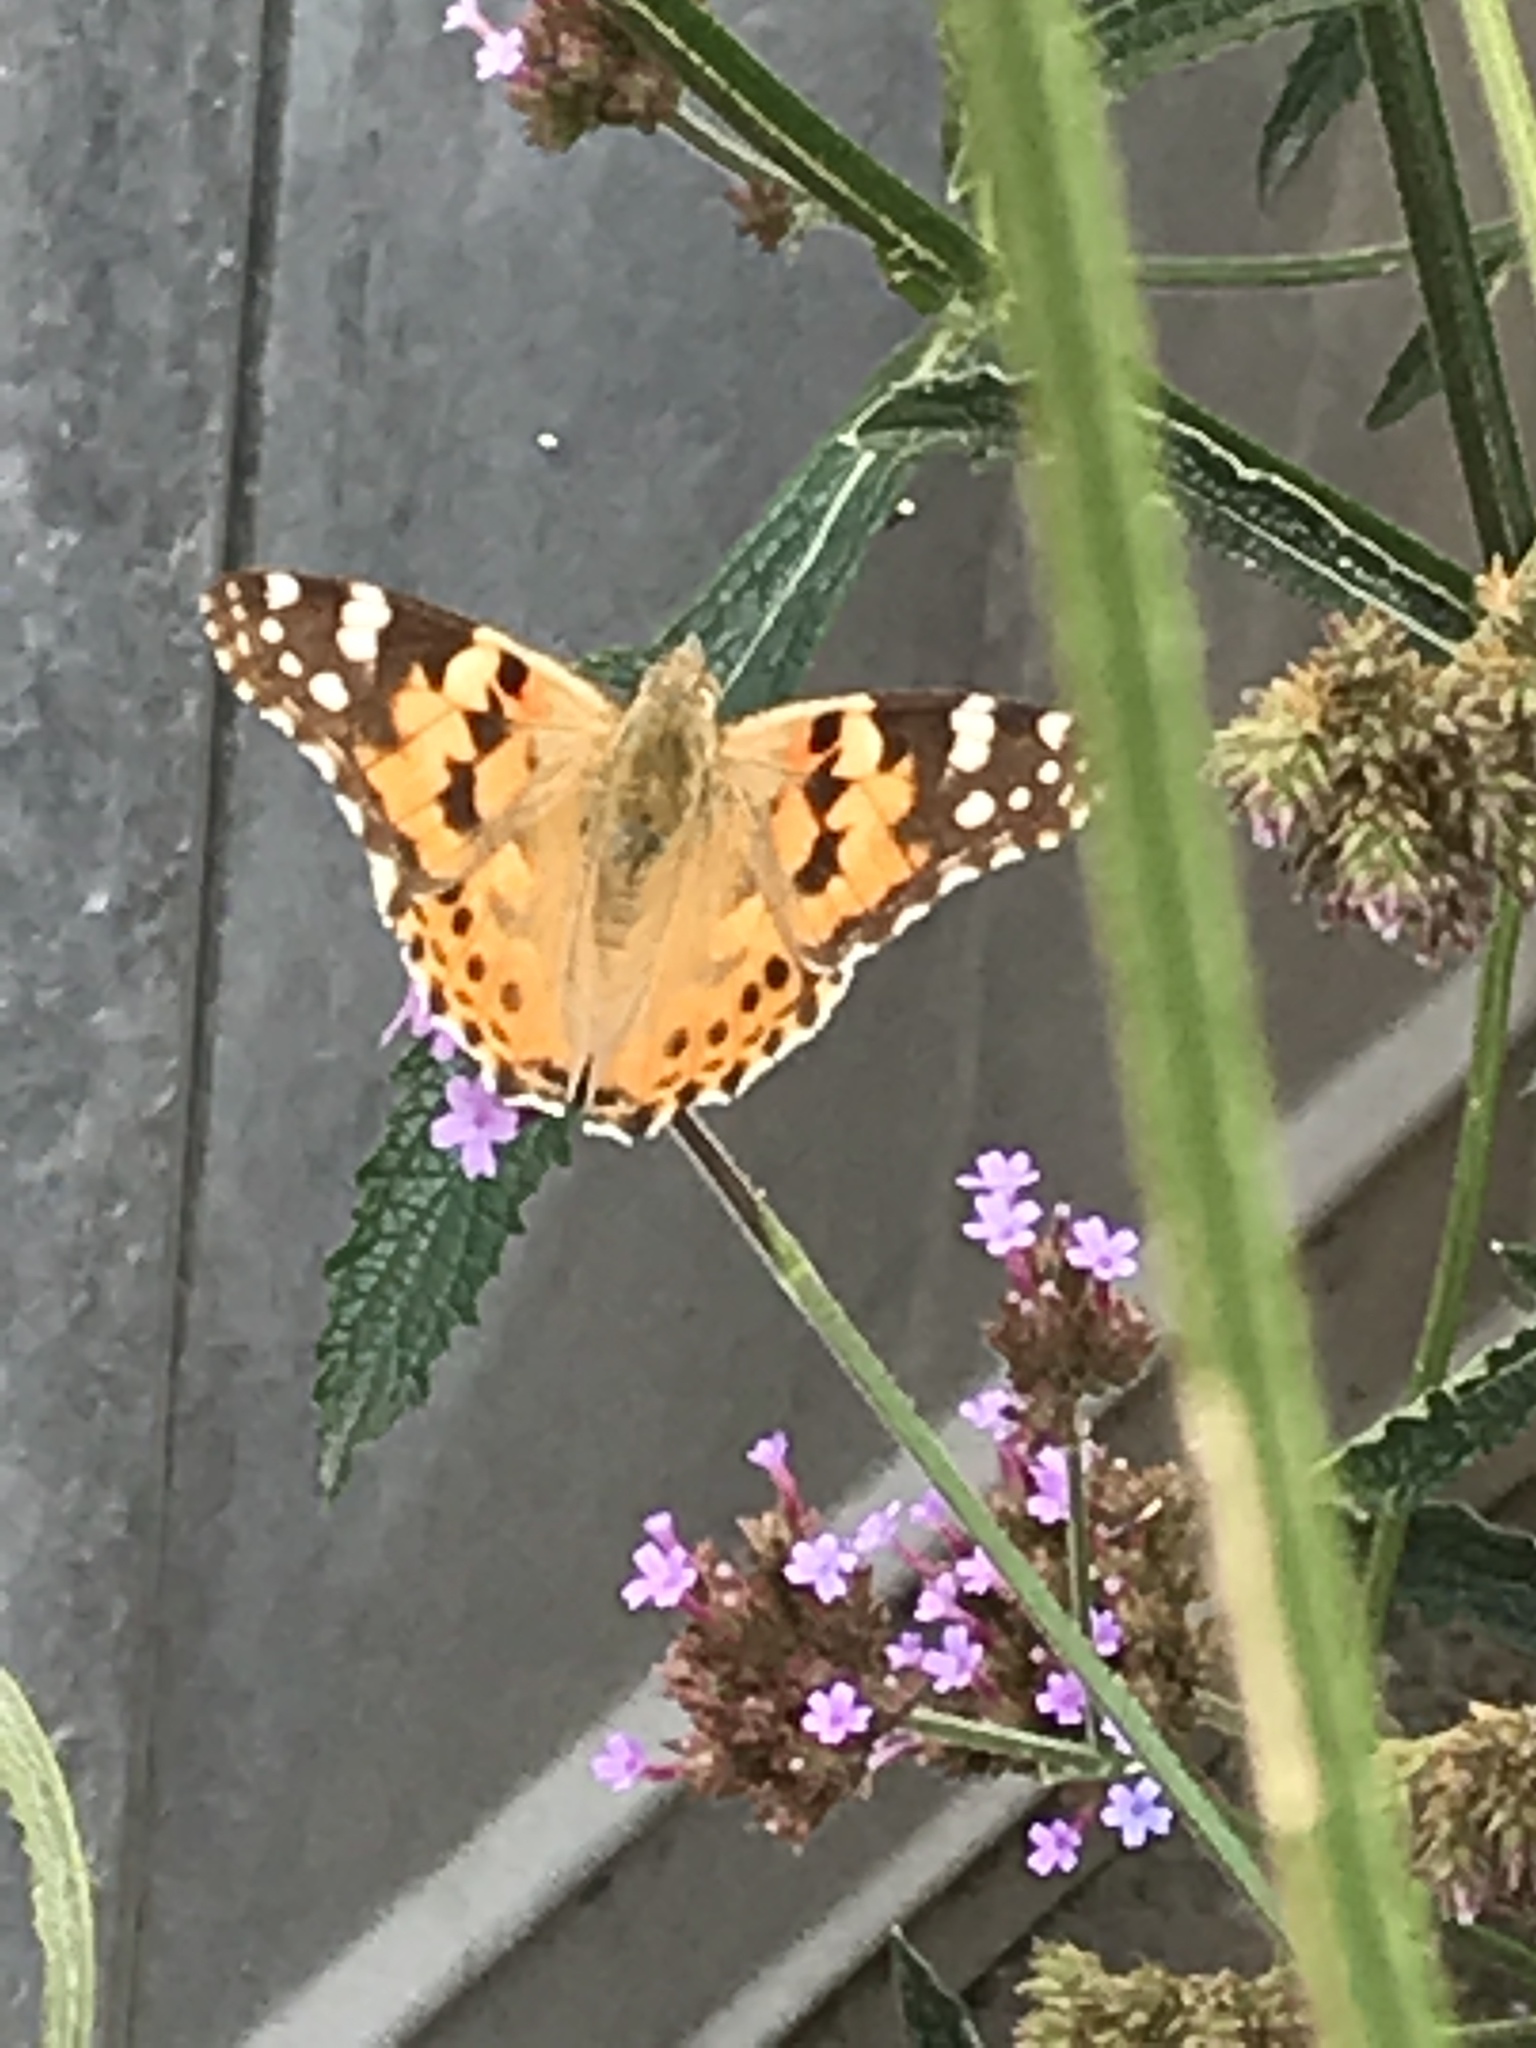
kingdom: Animalia
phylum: Arthropoda
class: Insecta
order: Lepidoptera
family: Nymphalidae
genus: Vanessa
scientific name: Vanessa cardui
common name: Painted lady
